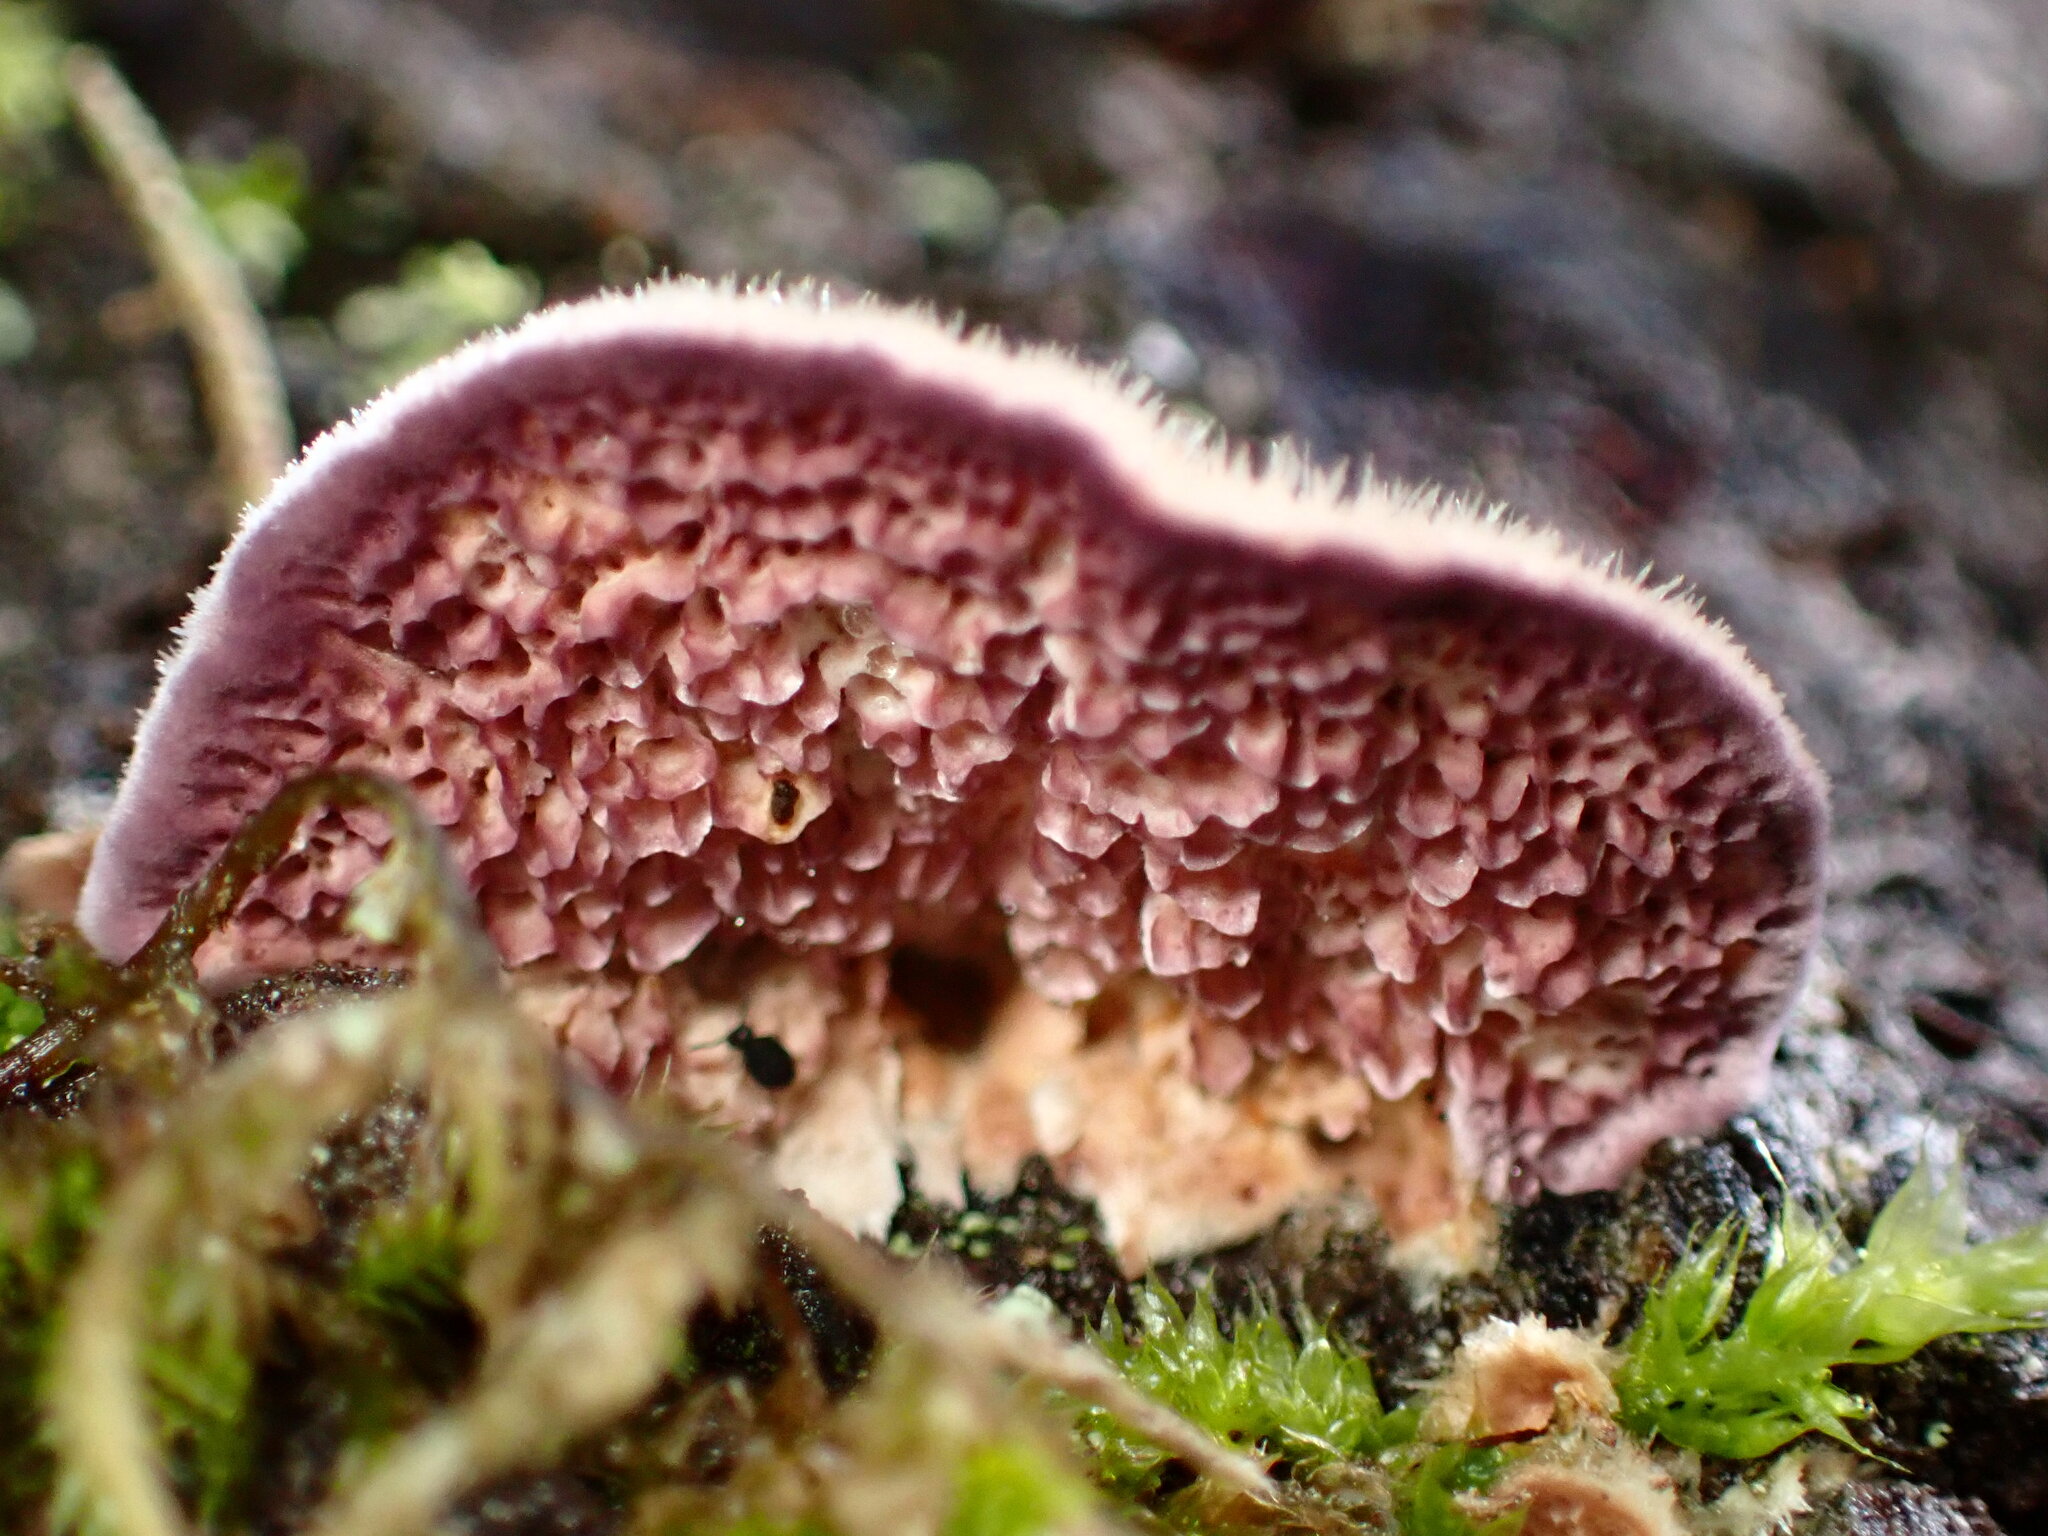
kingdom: Fungi
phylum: Basidiomycota
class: Agaricomycetes
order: Hymenochaetales
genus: Trichaptum
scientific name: Trichaptum abietinum
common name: Purplepore bracket
